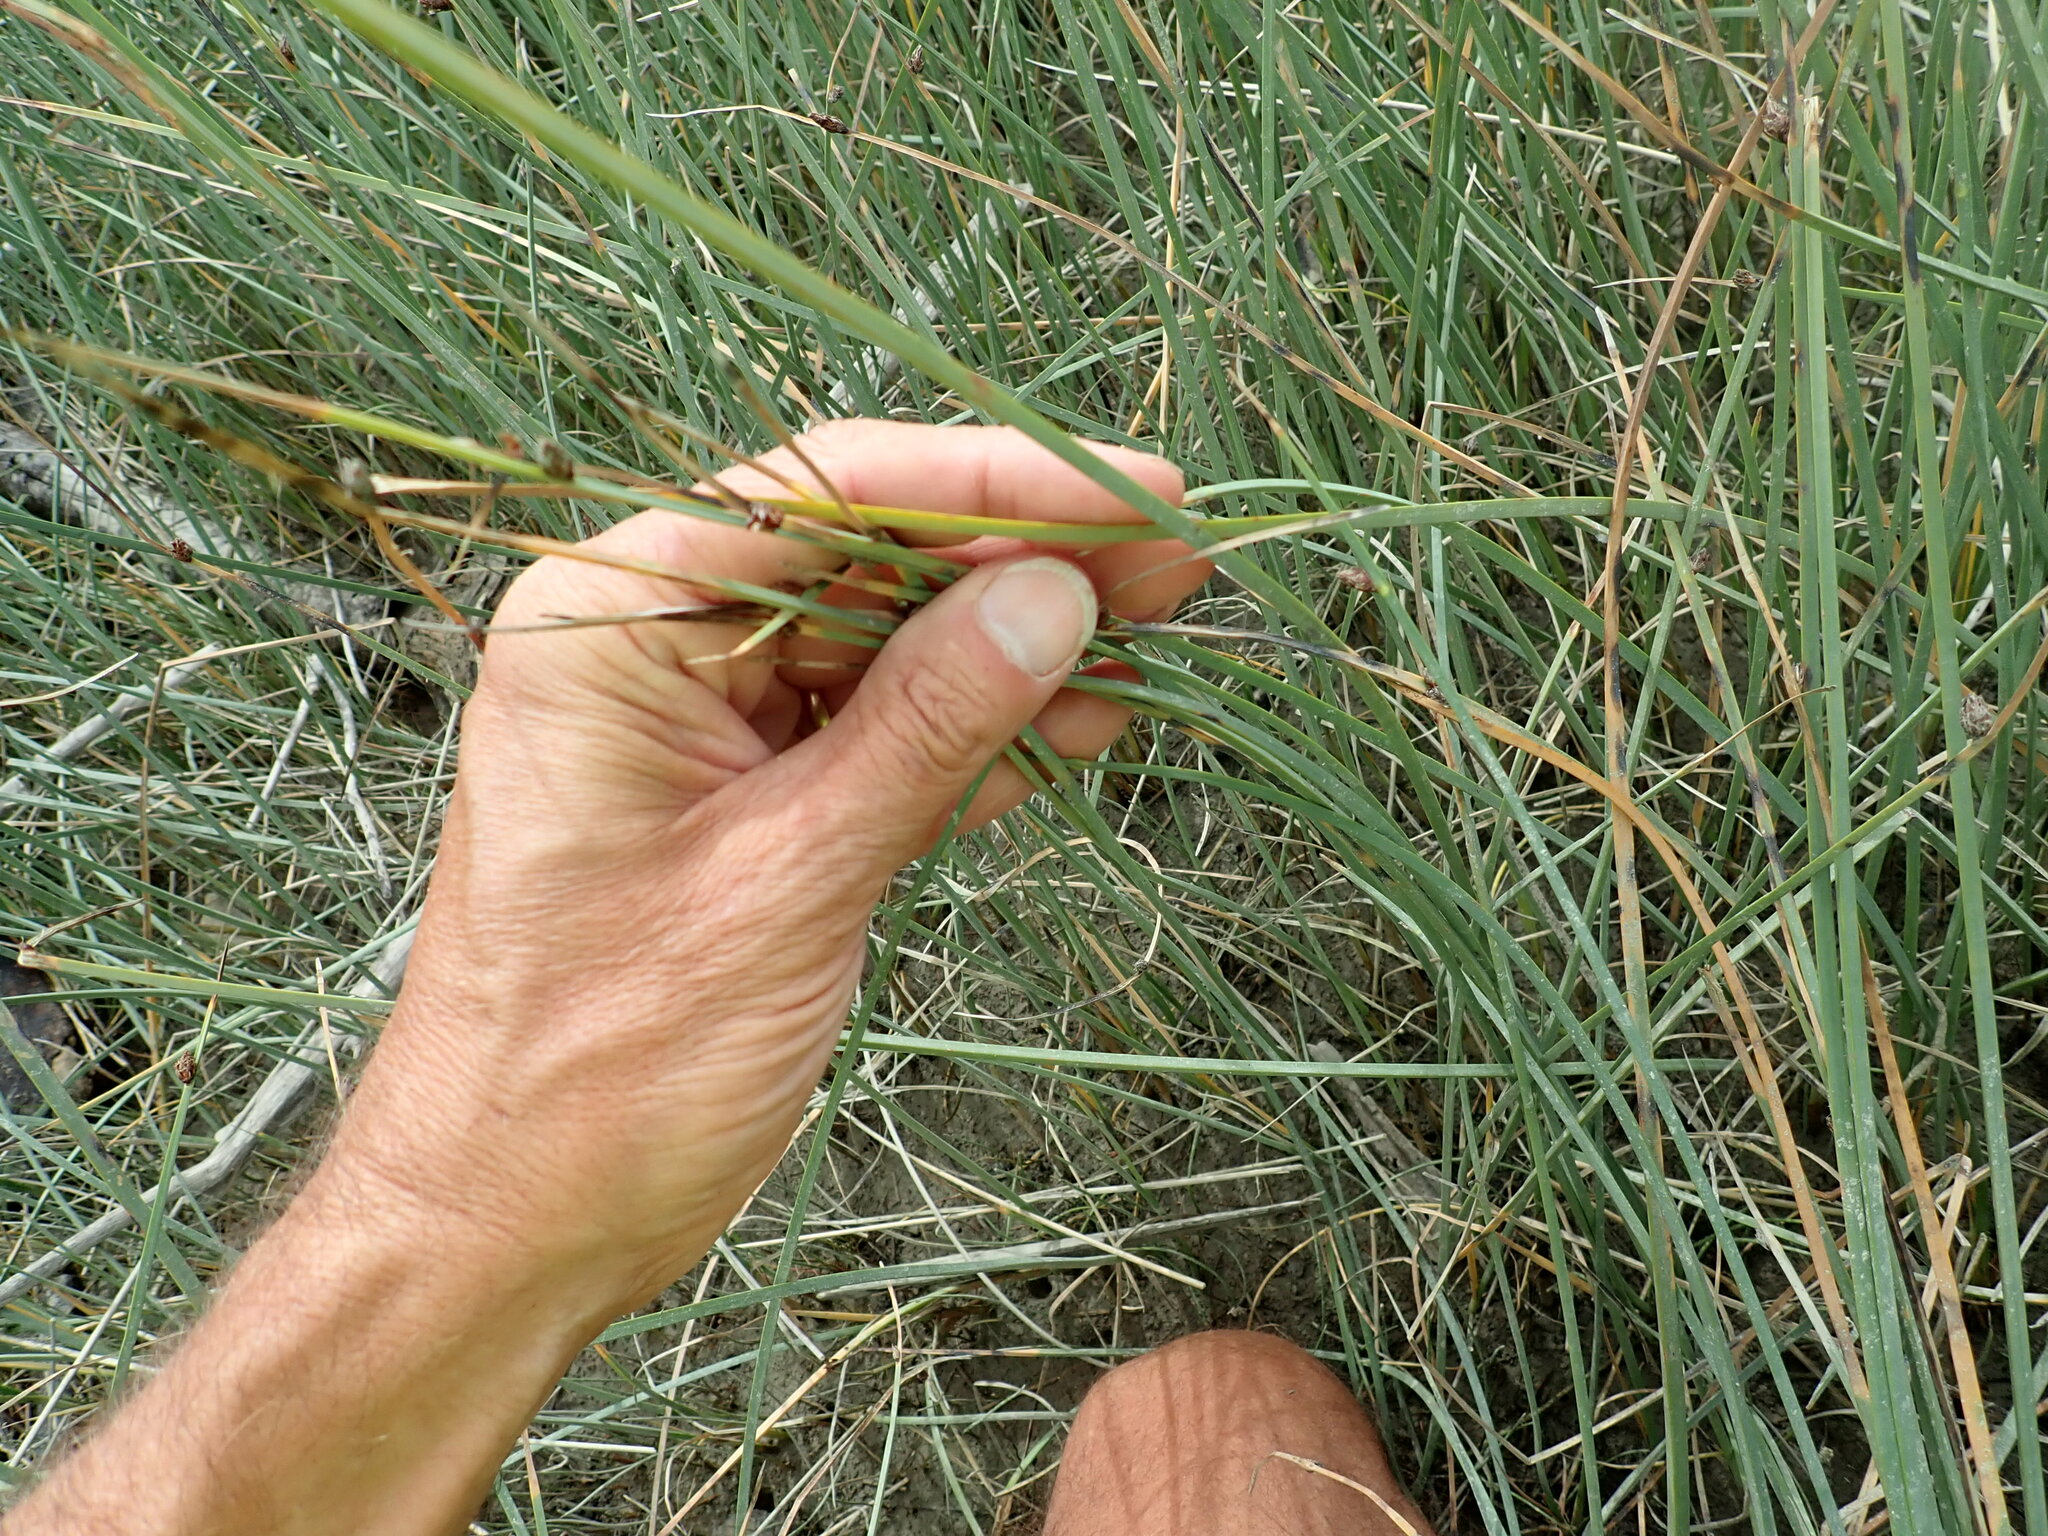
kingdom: Plantae
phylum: Tracheophyta
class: Liliopsida
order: Poales
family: Cyperaceae
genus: Schoenoplectus
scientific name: Schoenoplectus pungens
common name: Sharp club-rush
